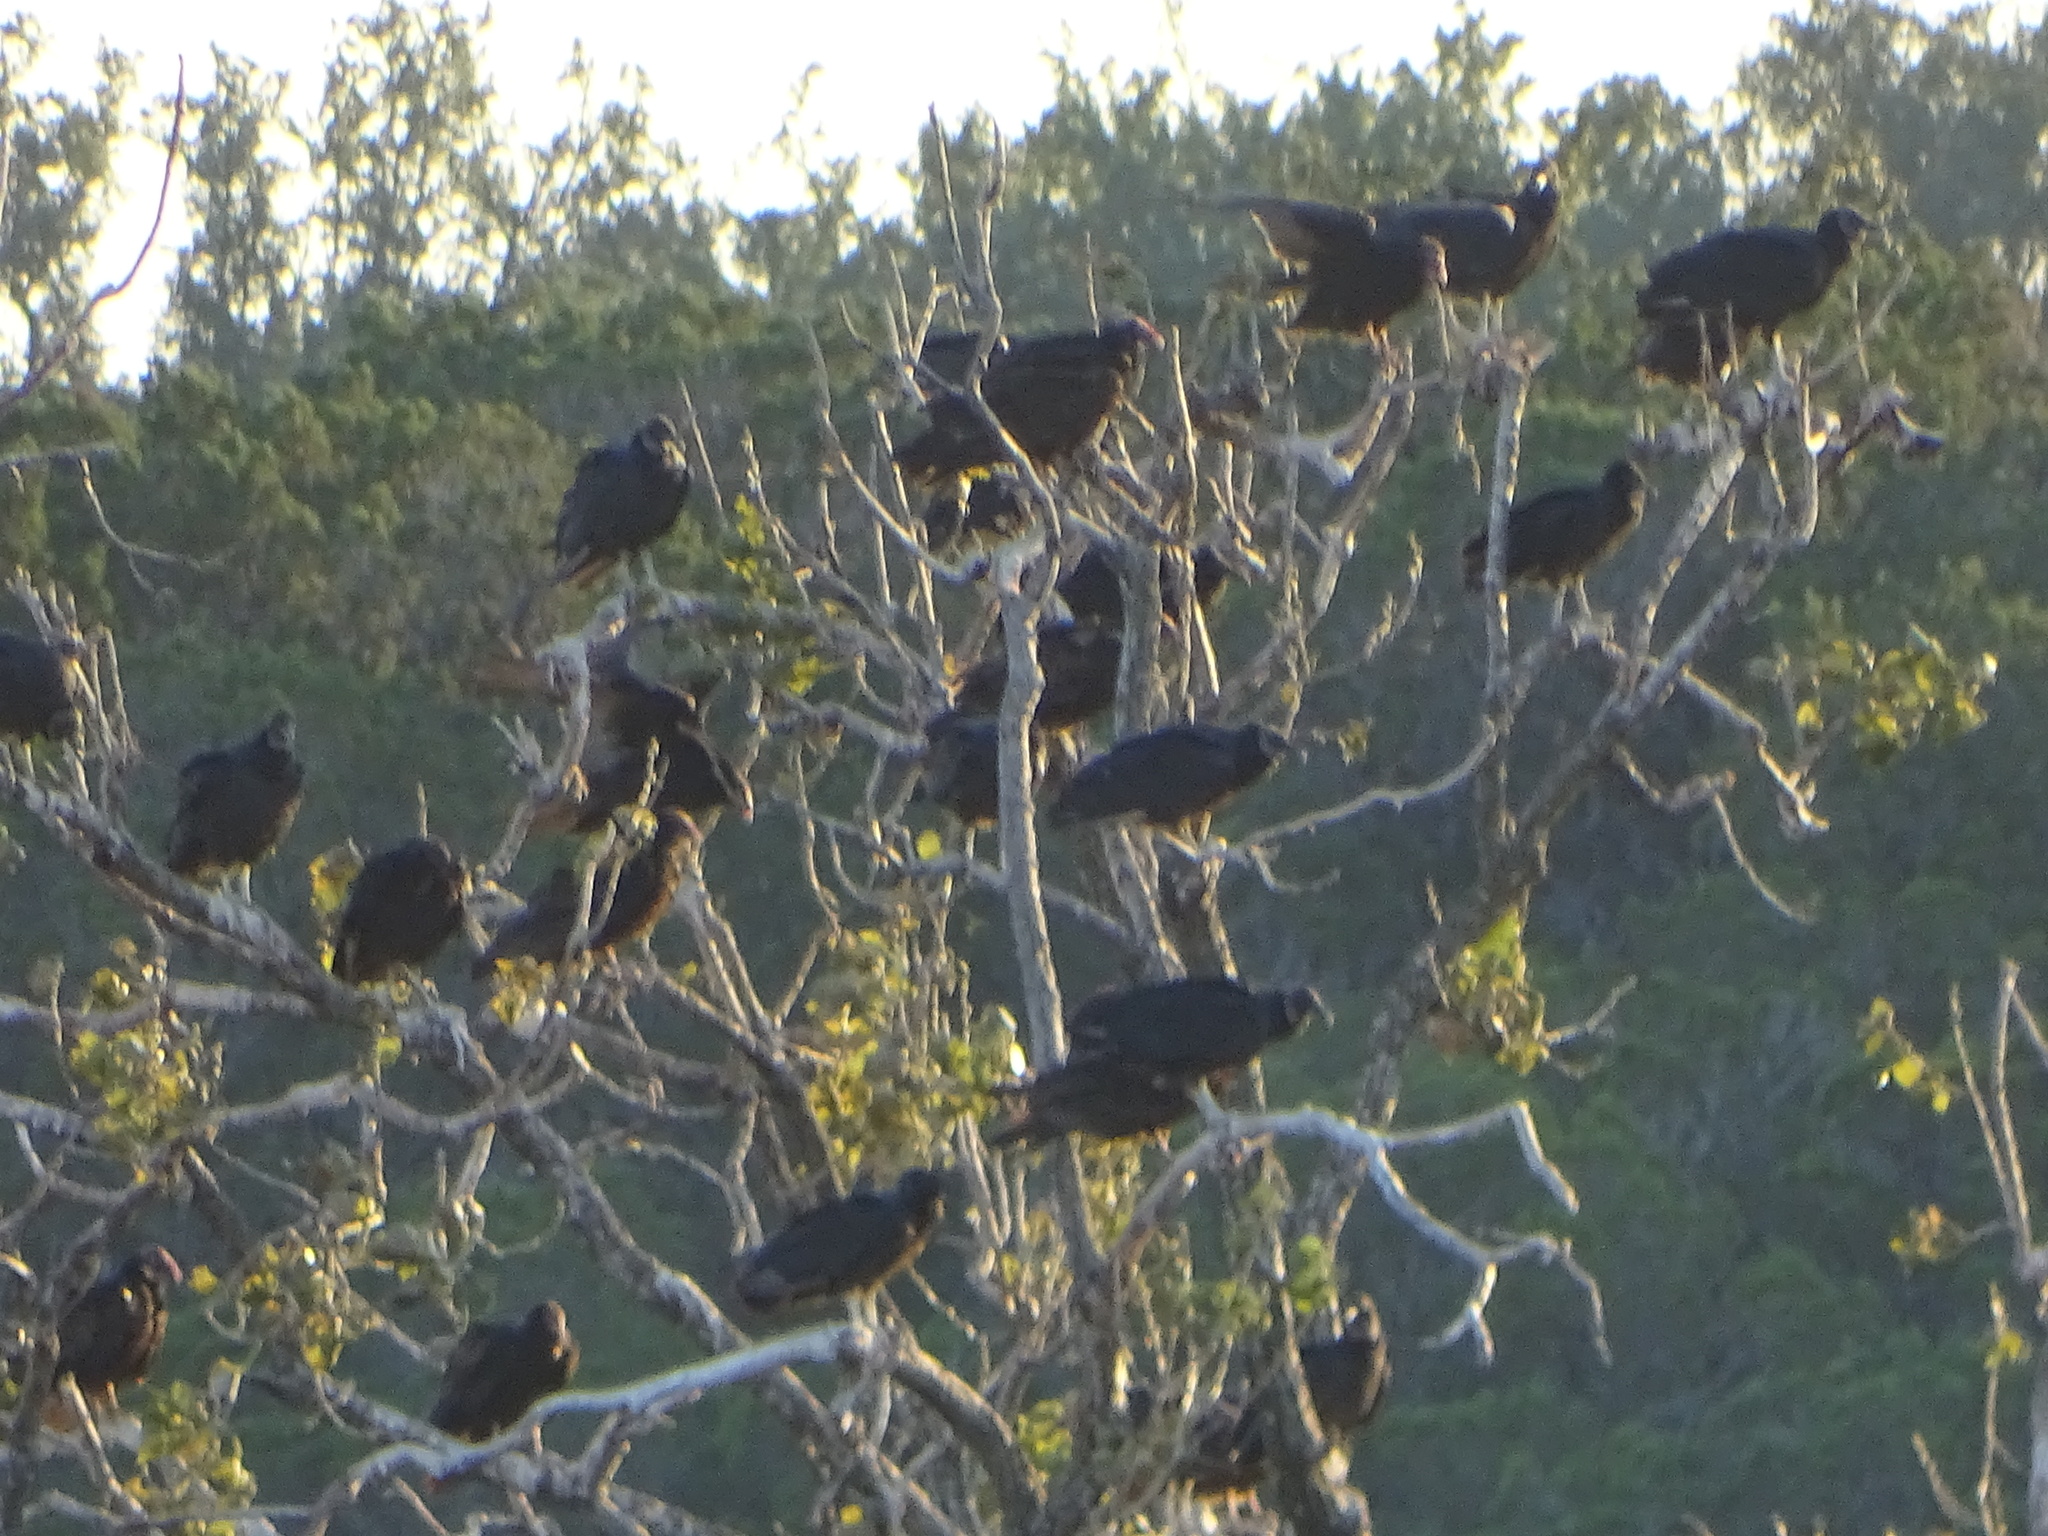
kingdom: Animalia
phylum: Chordata
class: Aves
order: Accipitriformes
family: Cathartidae
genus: Coragyps
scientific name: Coragyps atratus
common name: Black vulture
